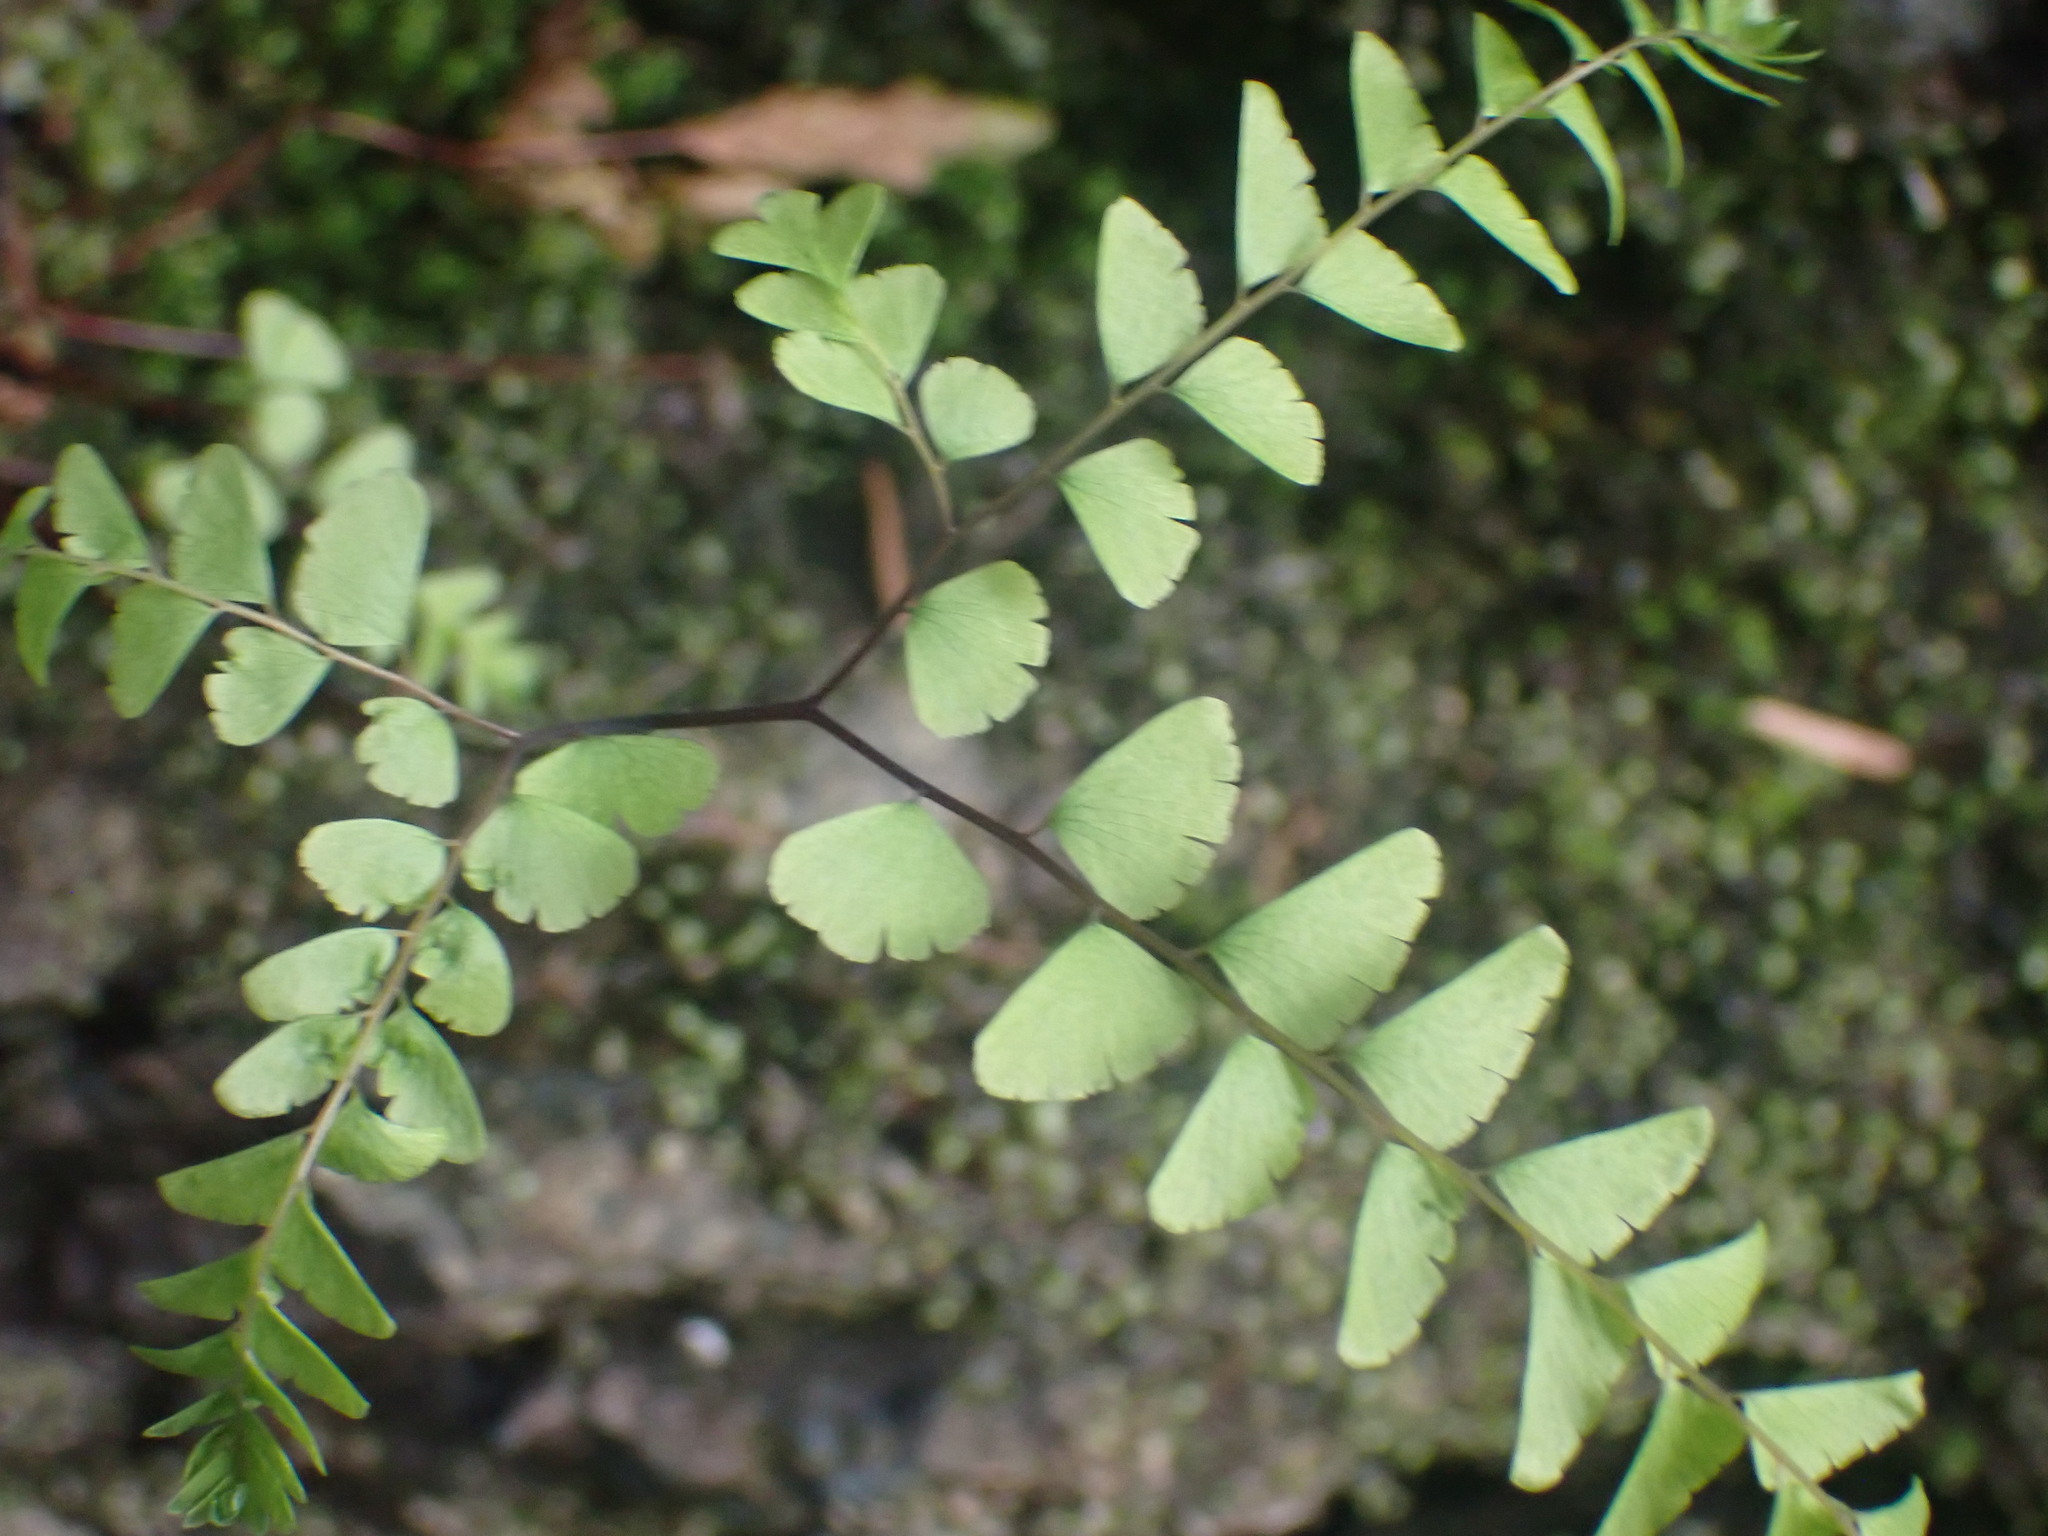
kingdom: Plantae
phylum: Tracheophyta
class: Polypodiopsida
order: Polypodiales
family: Pteridaceae
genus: Adiantum
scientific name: Adiantum aleuticum
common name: Aleutian maidenhair fern
